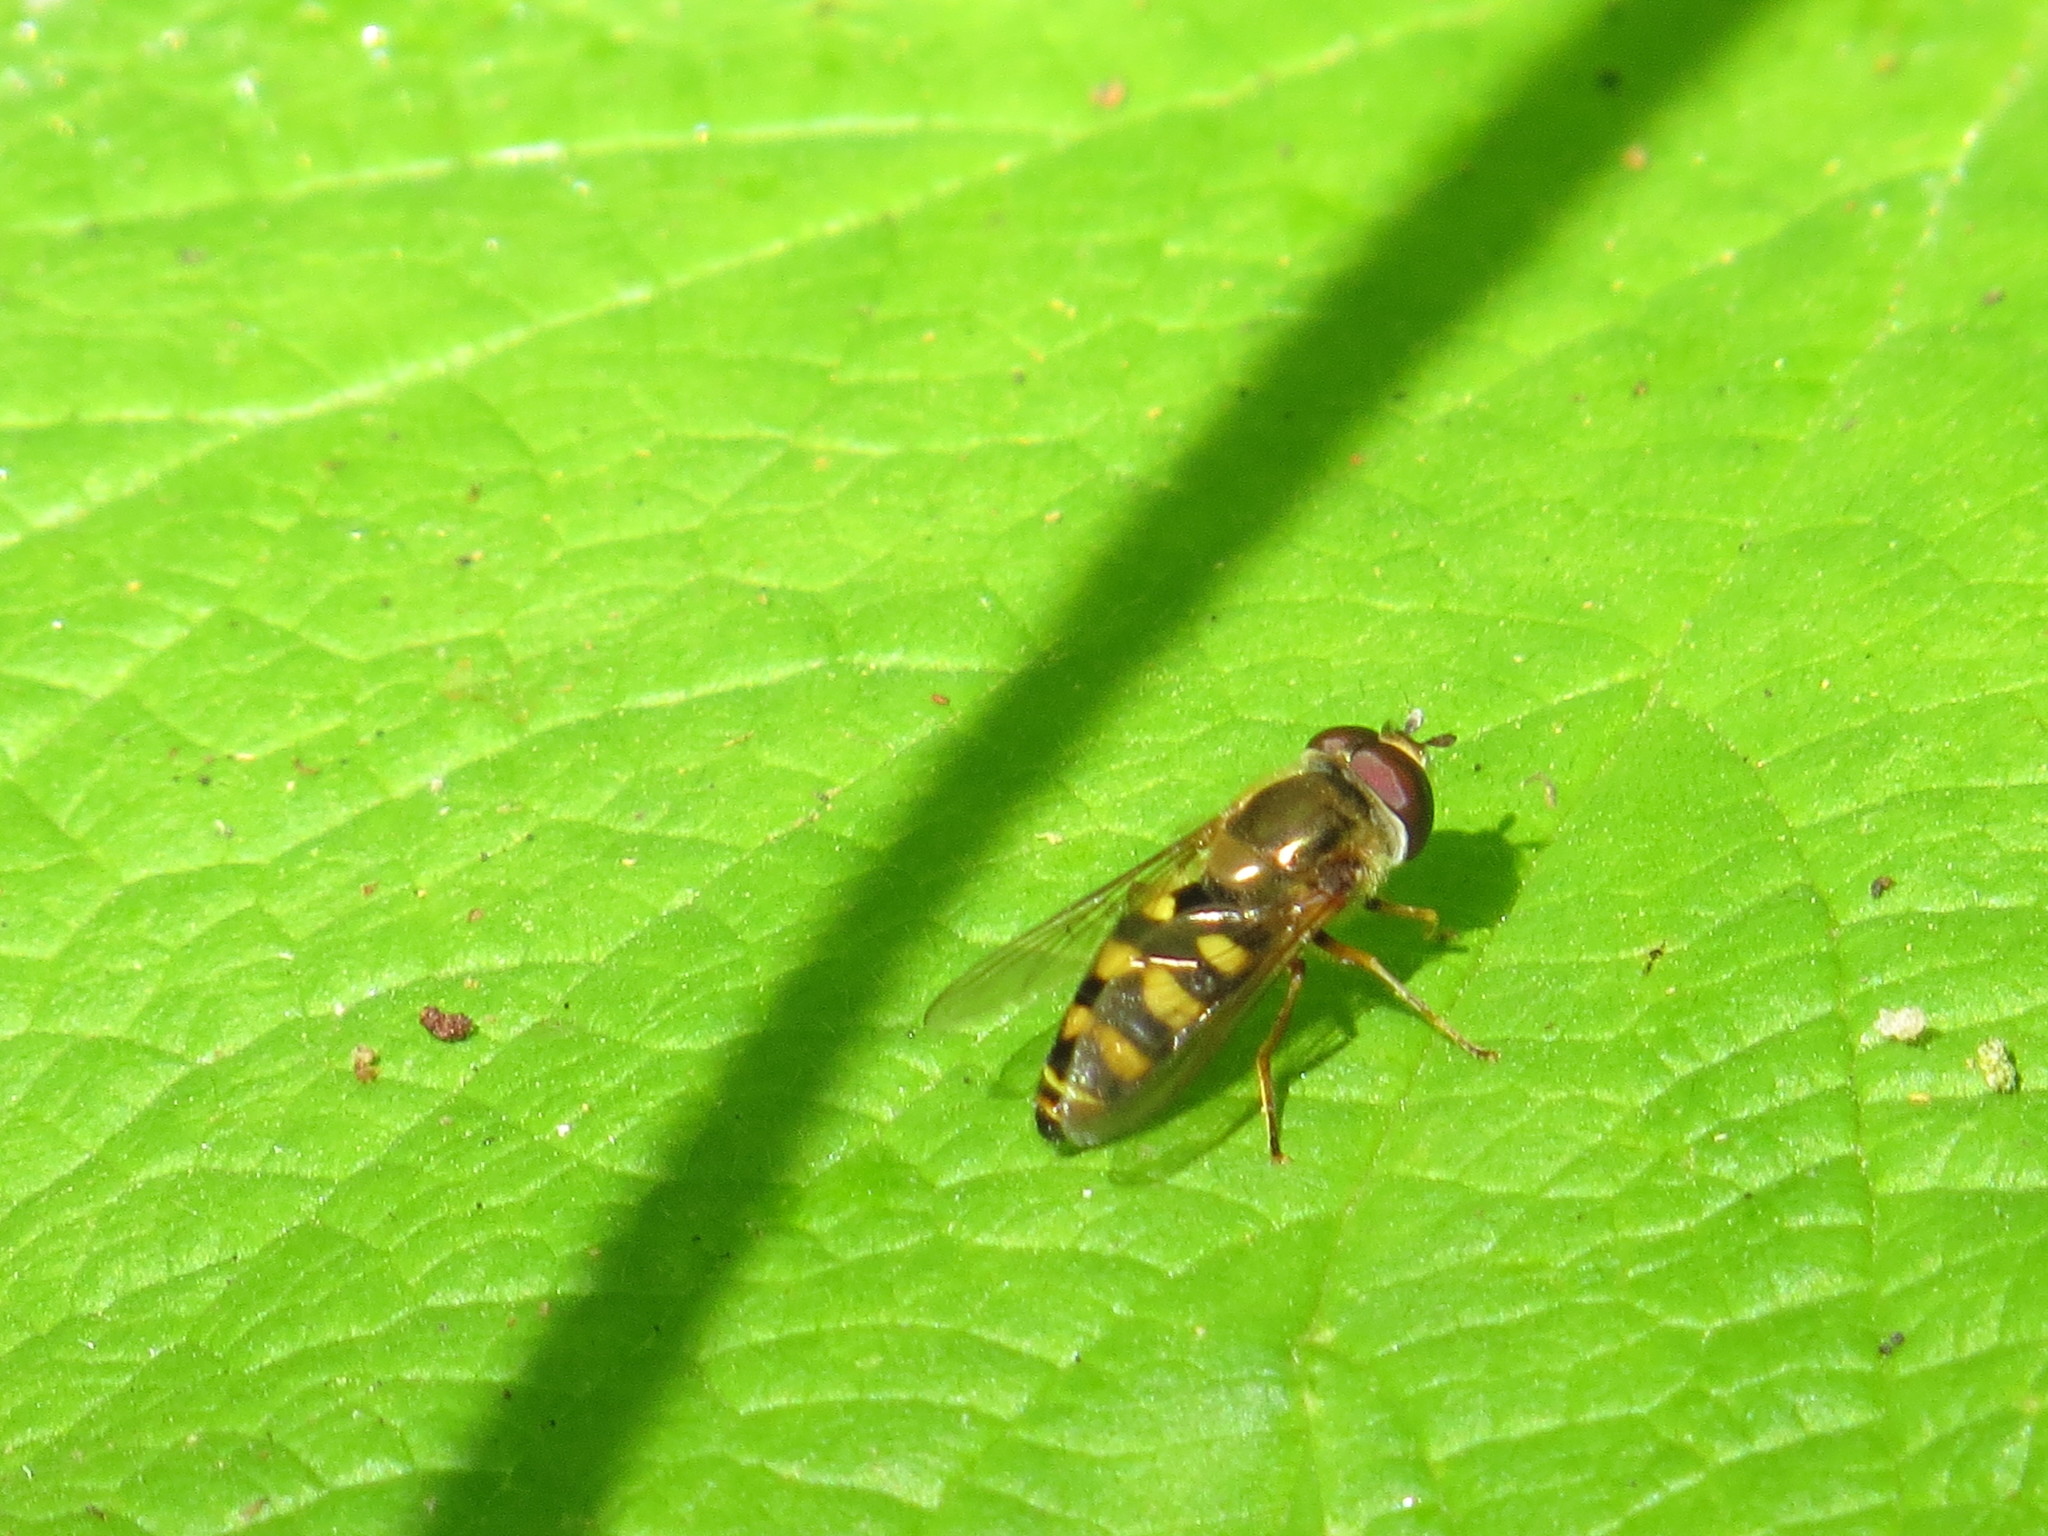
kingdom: Animalia
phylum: Arthropoda
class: Insecta
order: Diptera
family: Syrphidae
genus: Eupeodes
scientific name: Eupeodes fumipennis
